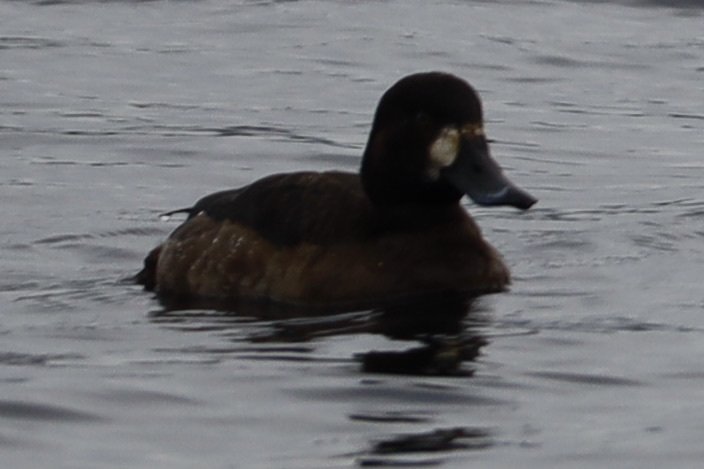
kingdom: Animalia
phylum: Chordata
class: Aves
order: Anseriformes
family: Anatidae
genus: Aythya
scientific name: Aythya marila
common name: Greater scaup
